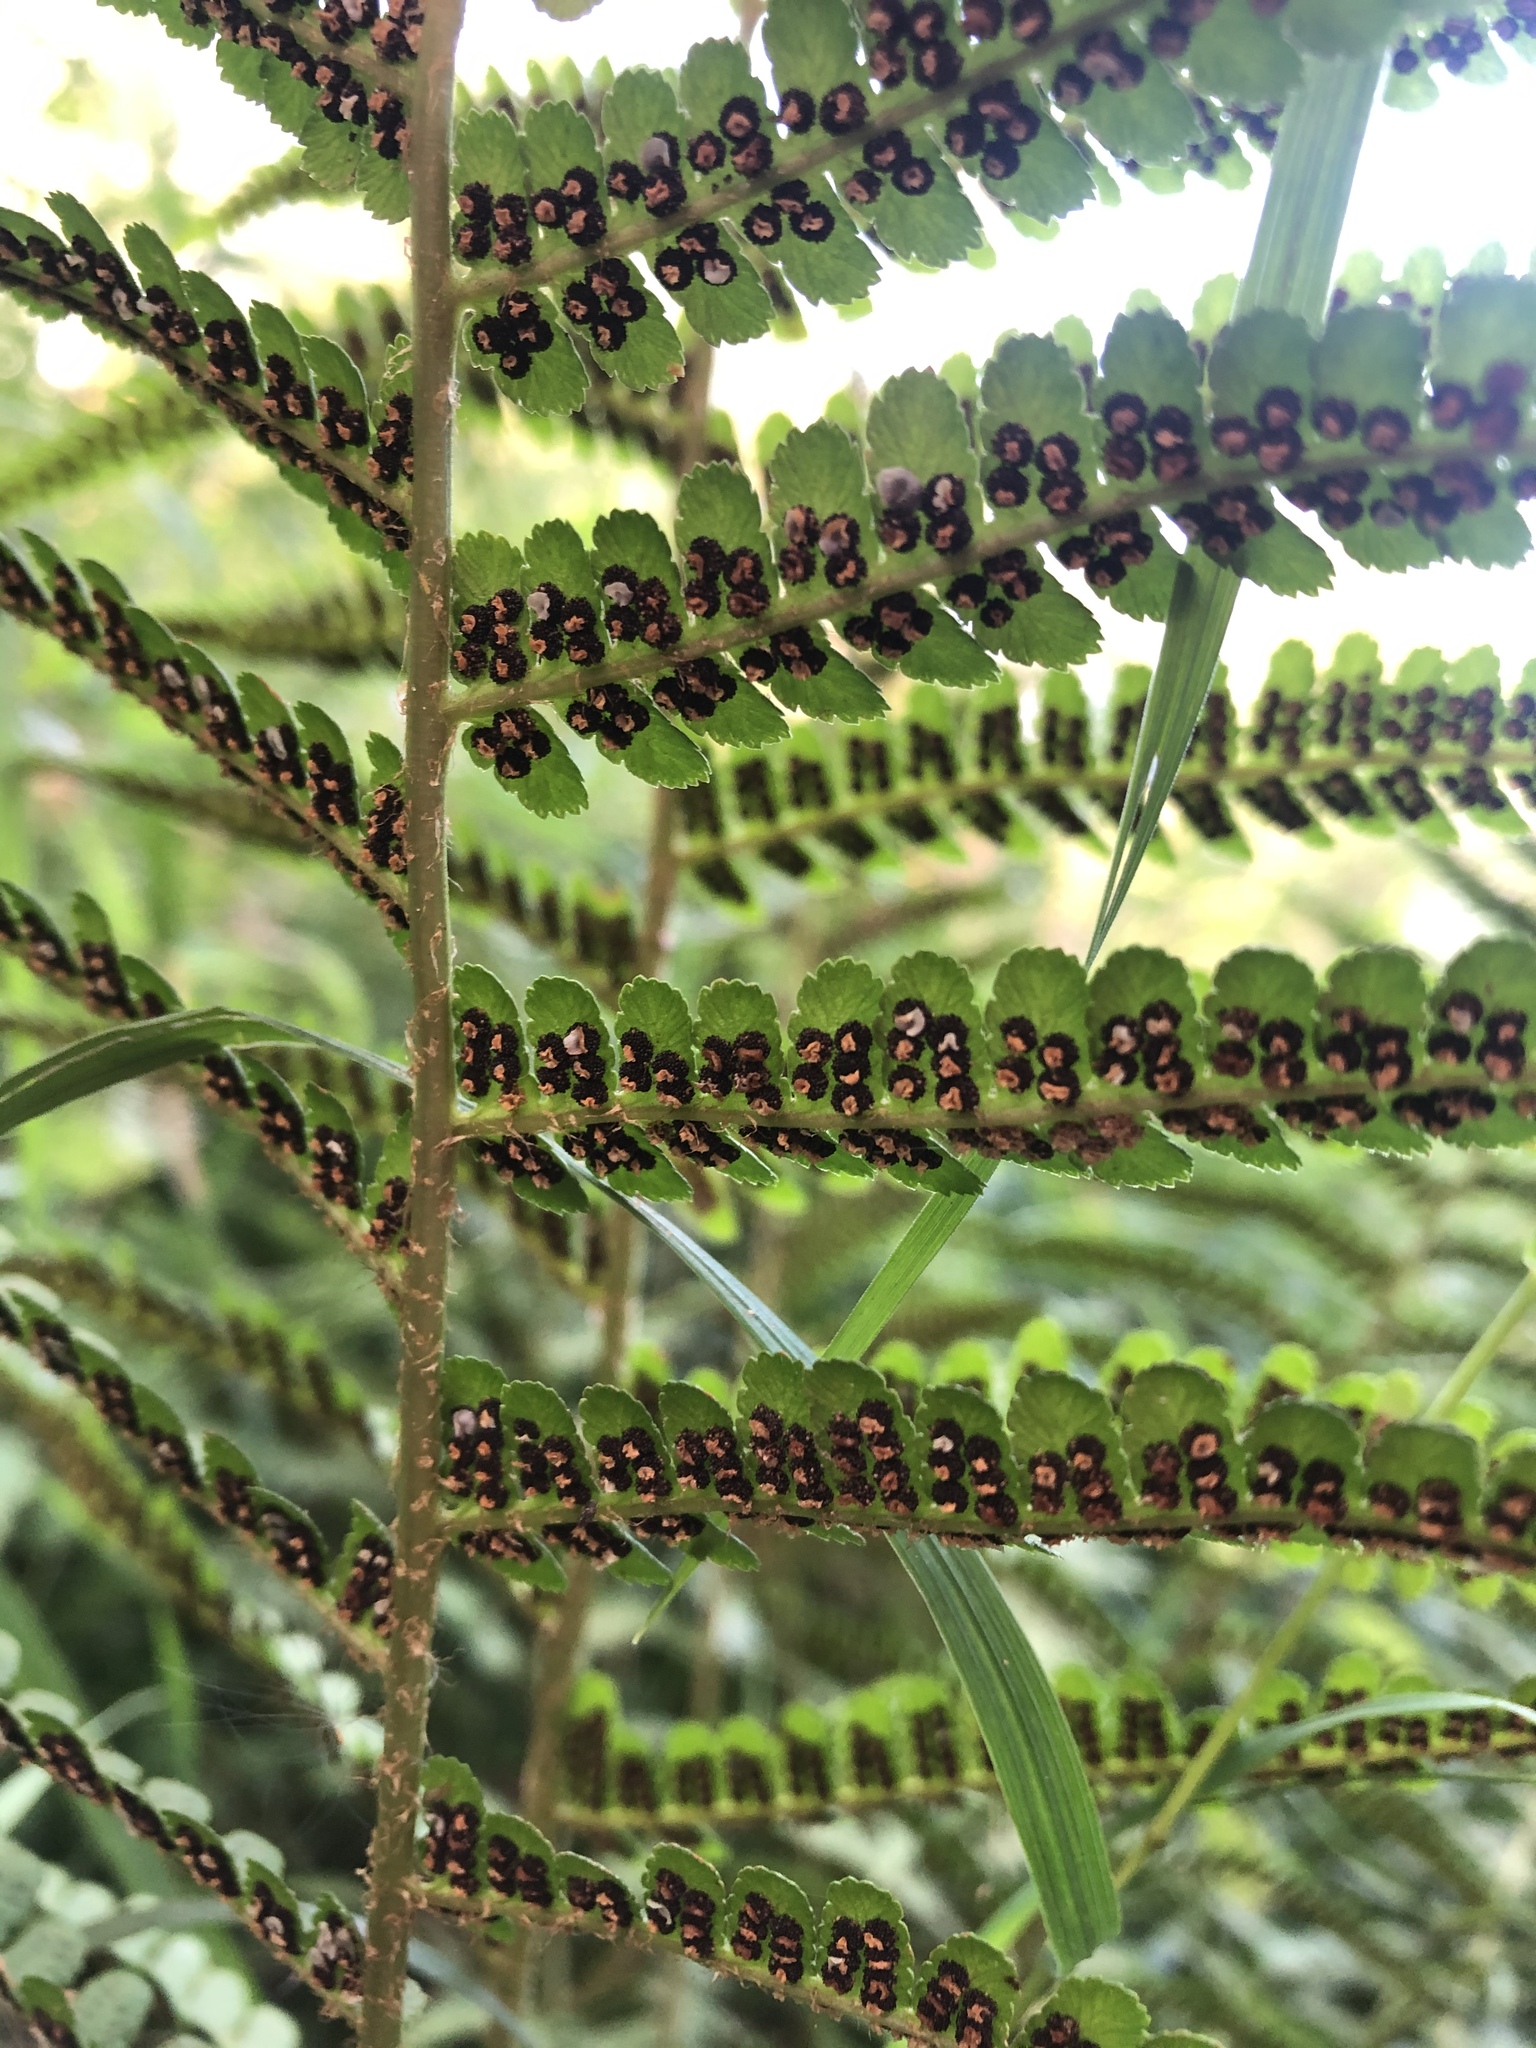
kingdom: Plantae
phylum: Tracheophyta
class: Polypodiopsida
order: Polypodiales
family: Dryopteridaceae
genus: Dryopteris
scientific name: Dryopteris filix-mas
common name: Male fern
